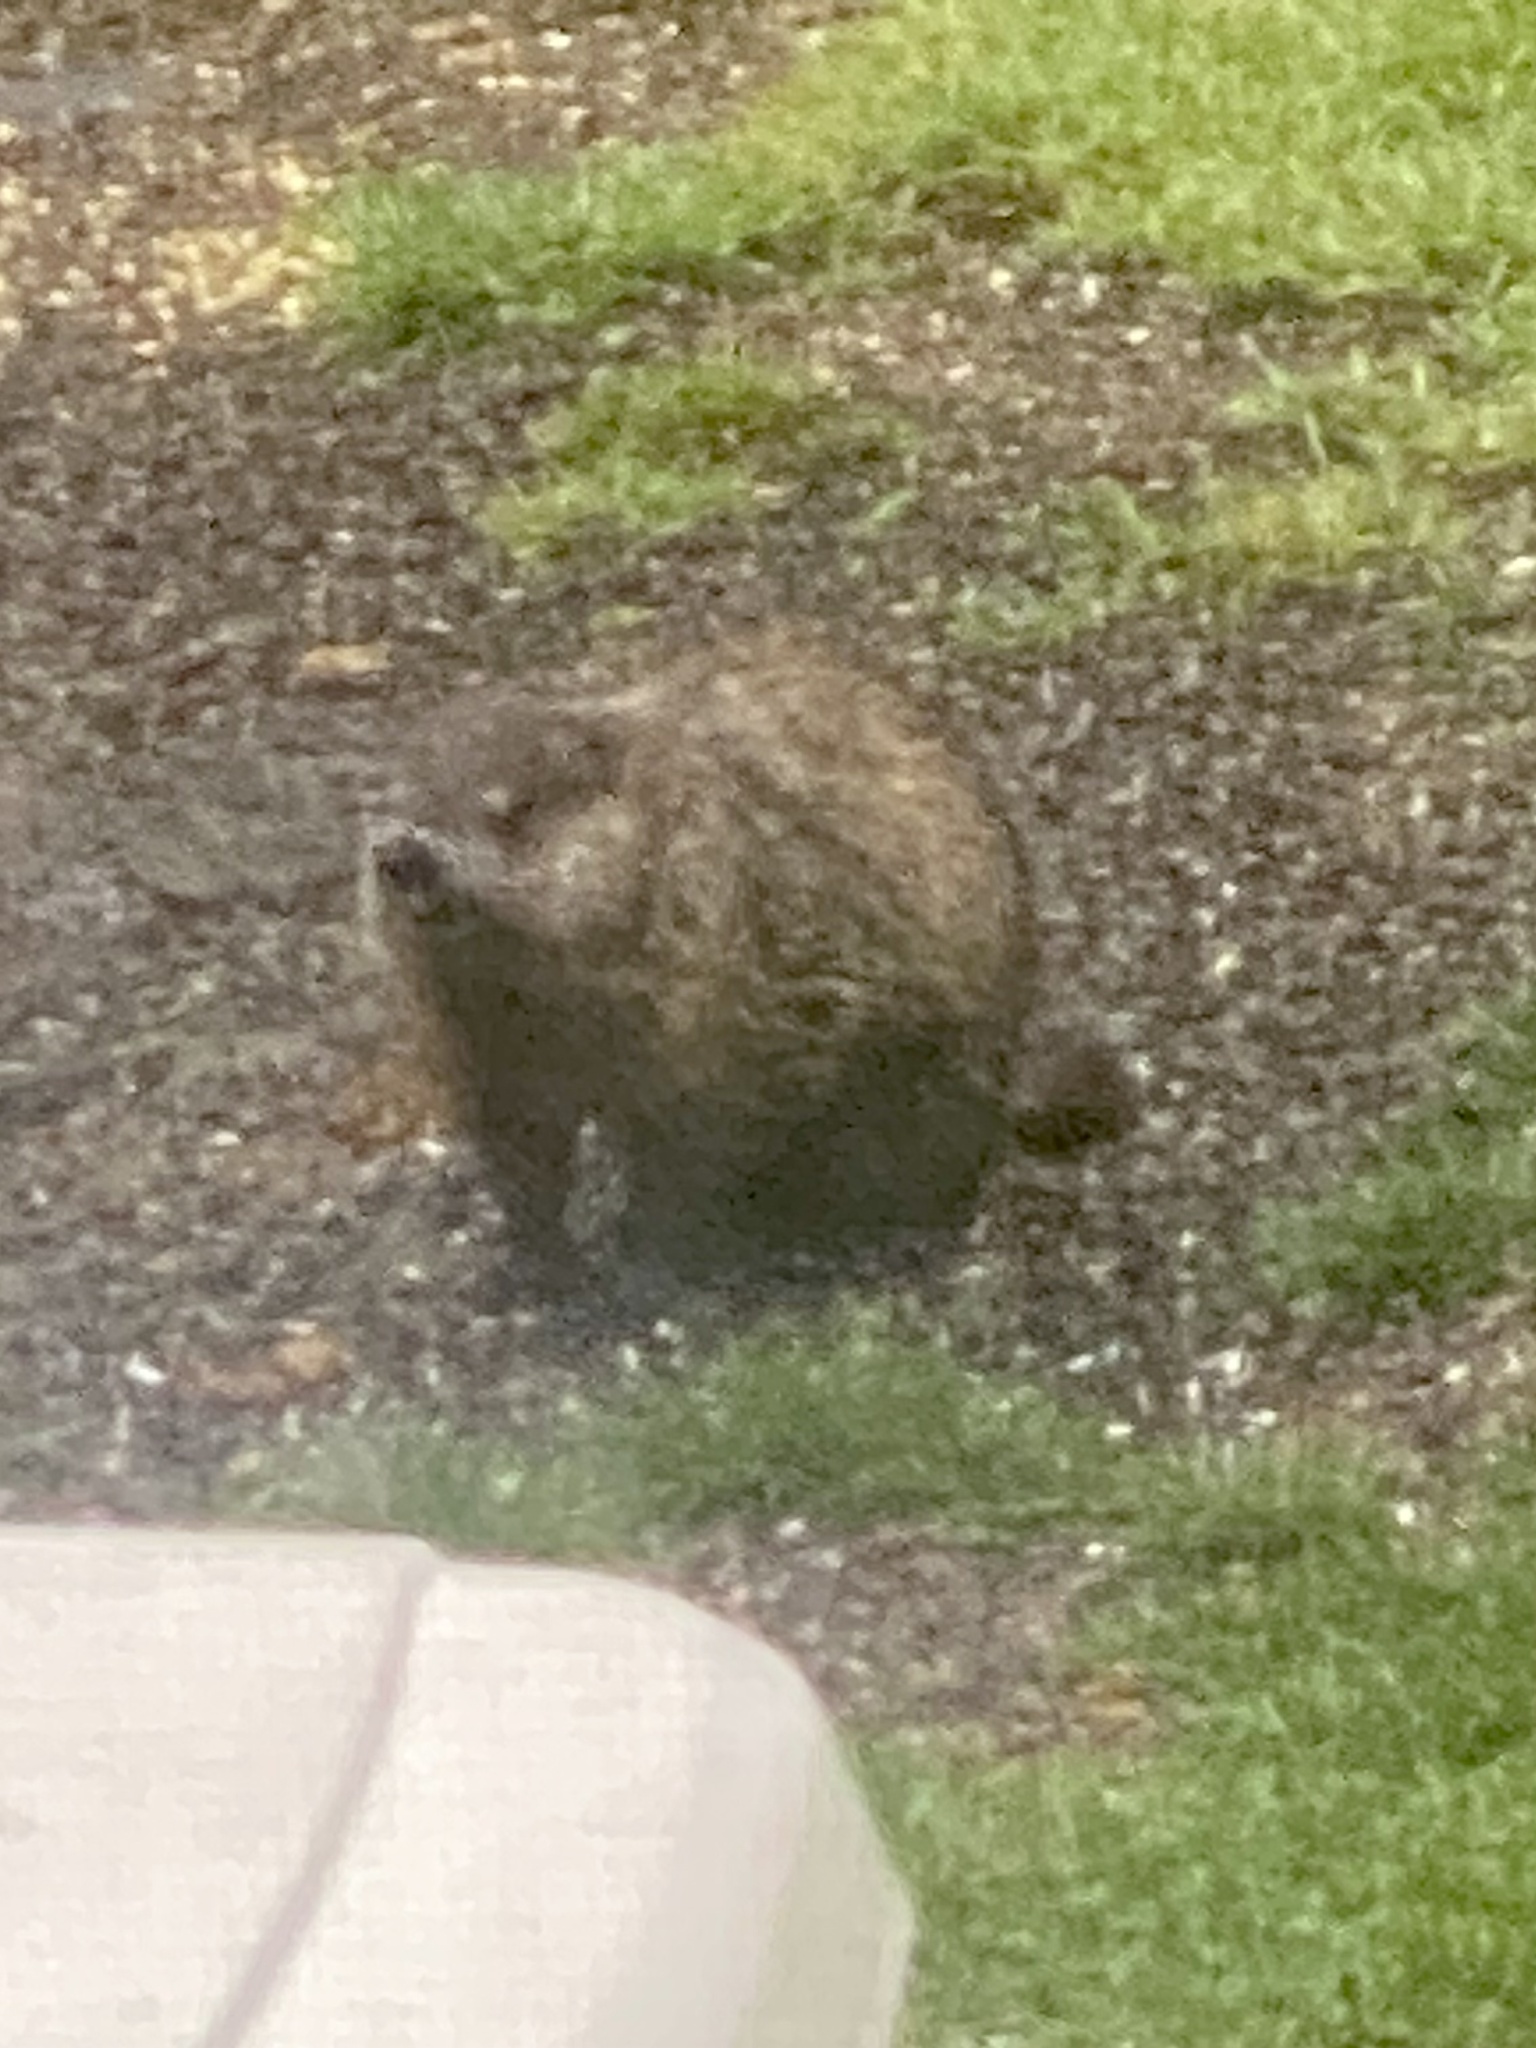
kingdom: Animalia
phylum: Chordata
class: Mammalia
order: Rodentia
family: Sciuridae
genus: Marmota
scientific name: Marmota monax
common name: Groundhog
